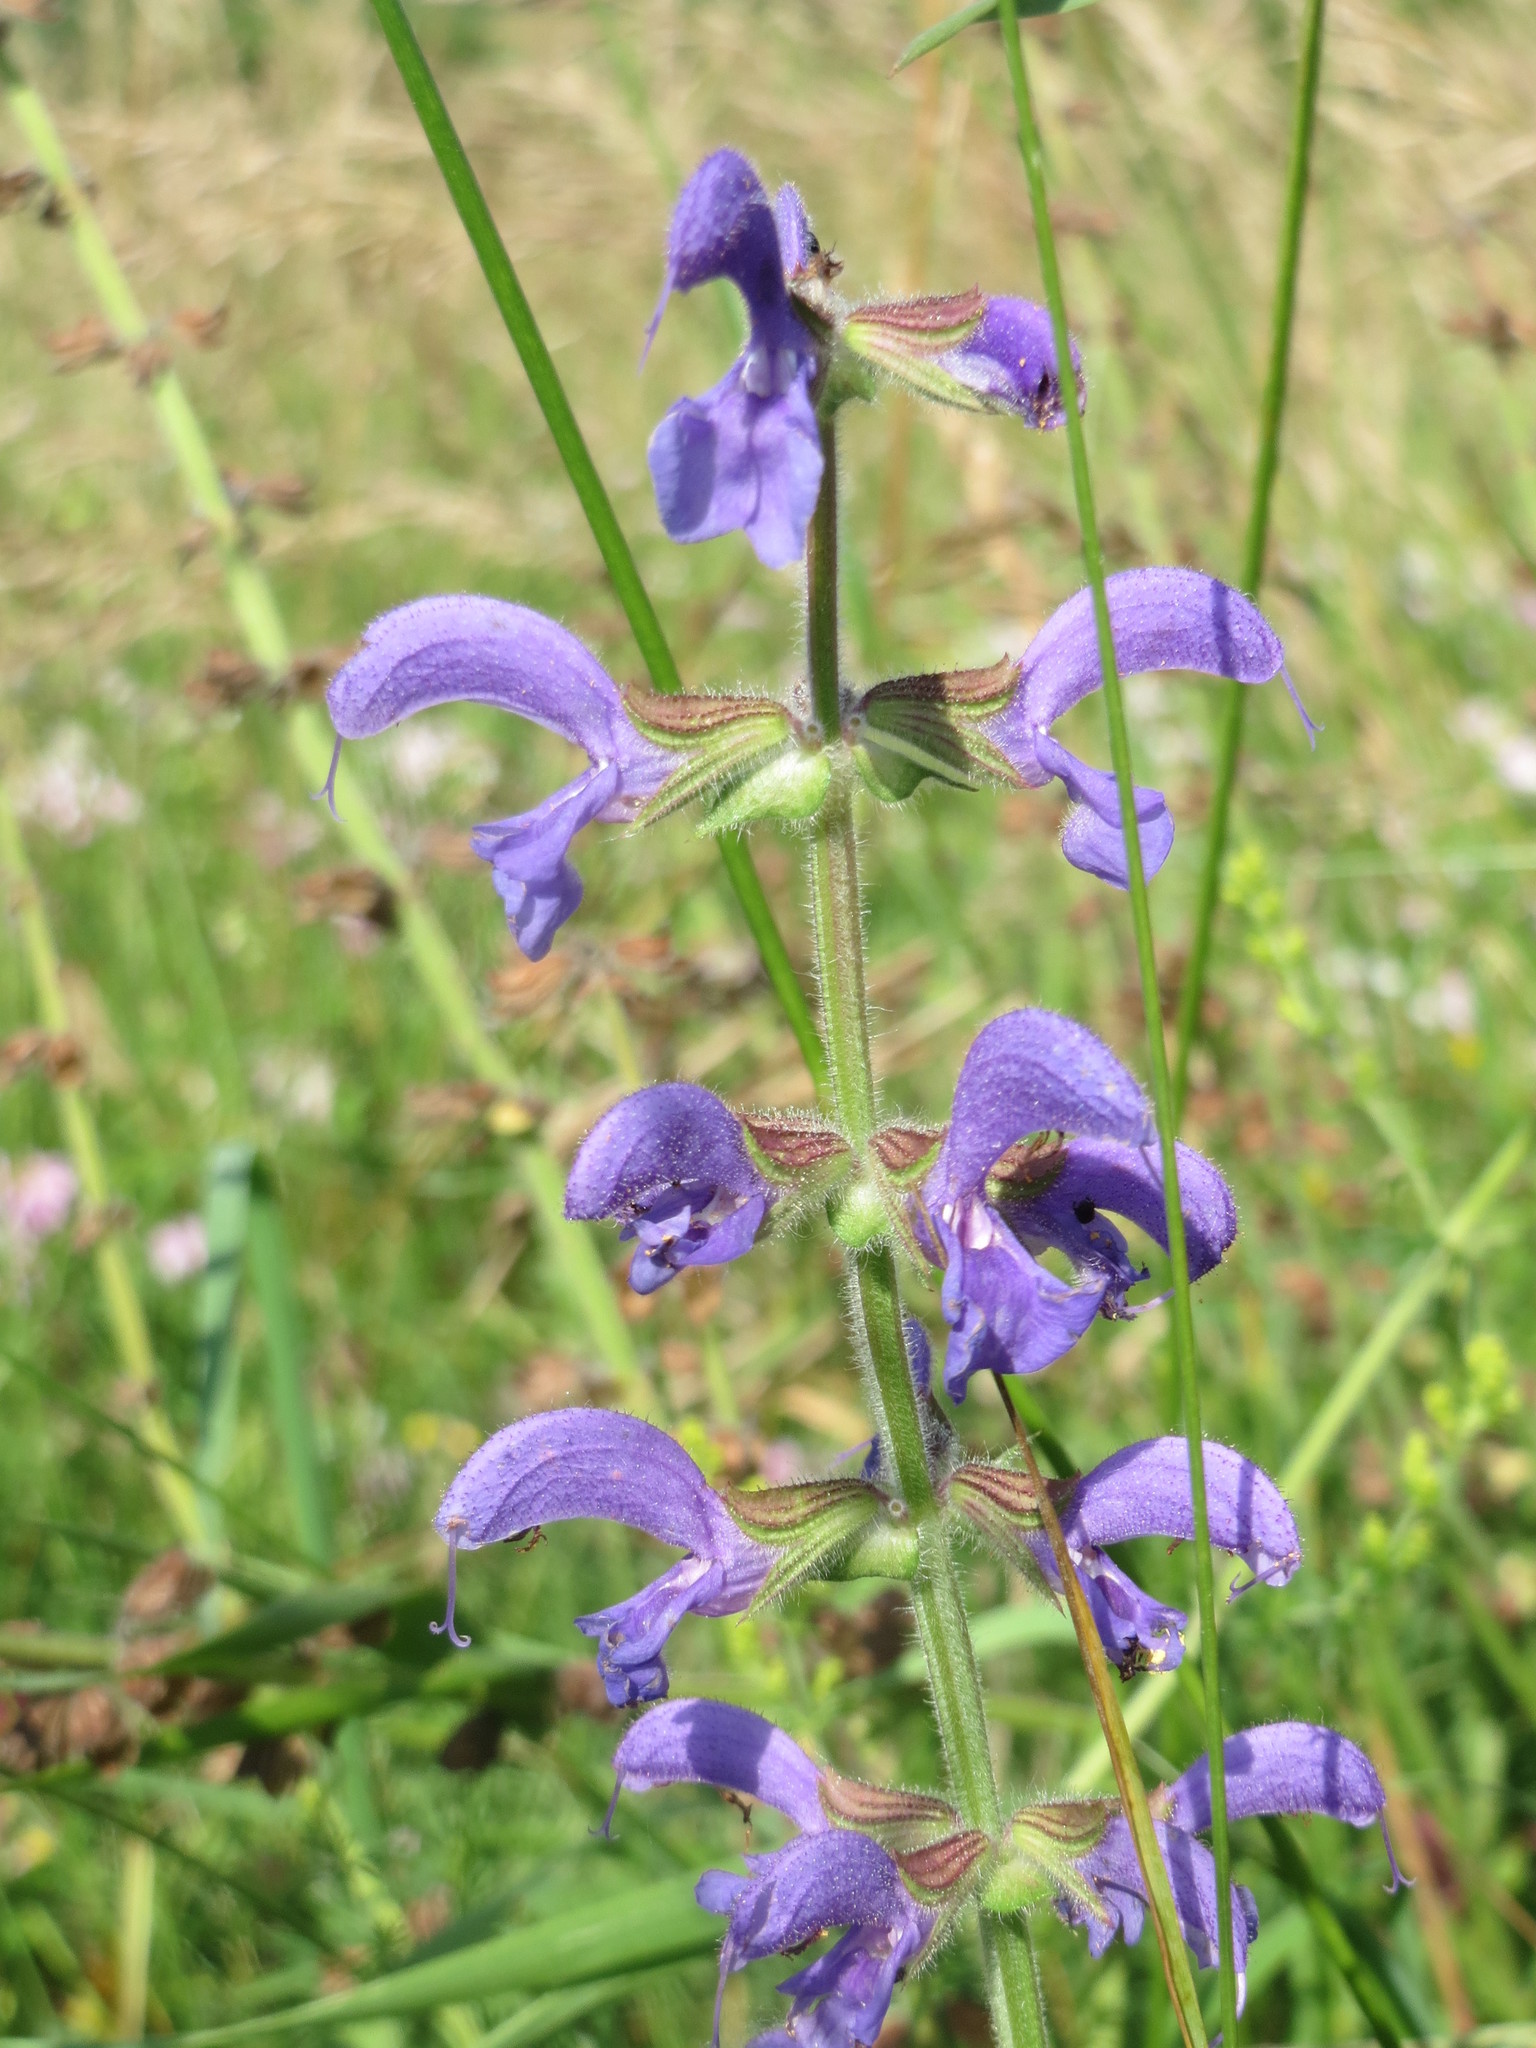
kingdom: Plantae
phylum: Tracheophyta
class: Magnoliopsida
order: Lamiales
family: Lamiaceae
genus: Salvia
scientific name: Salvia pratensis
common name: Meadow sage
